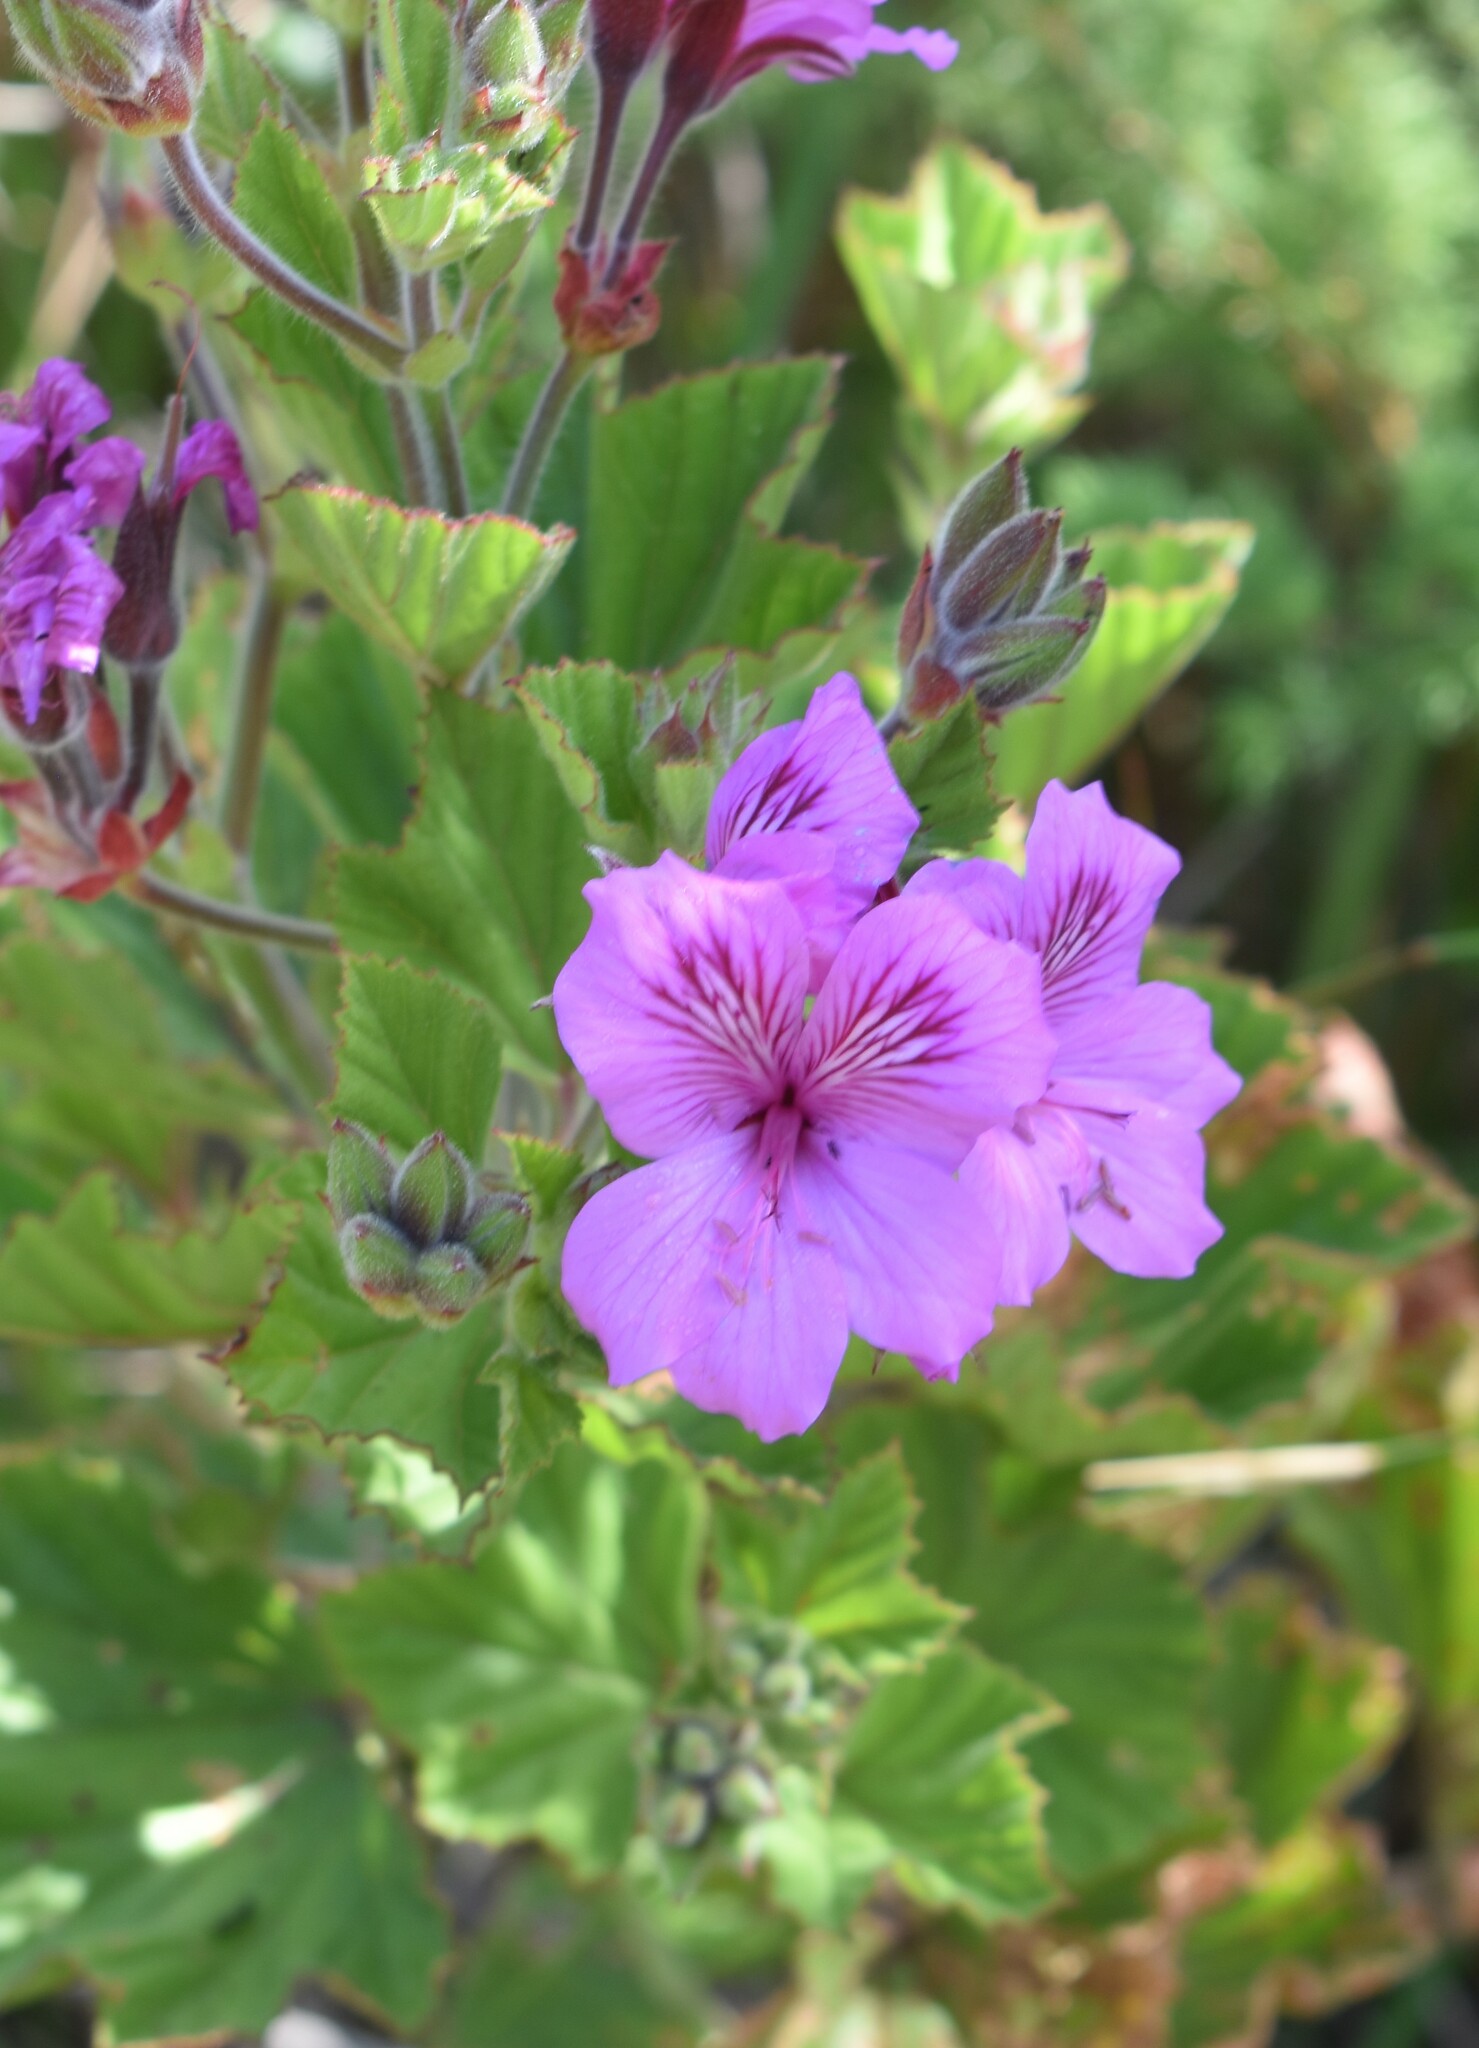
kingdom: Plantae
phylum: Tracheophyta
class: Magnoliopsida
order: Geraniales
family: Geraniaceae
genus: Pelargonium
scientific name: Pelargonium cucullatum
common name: Tree pelargonium
